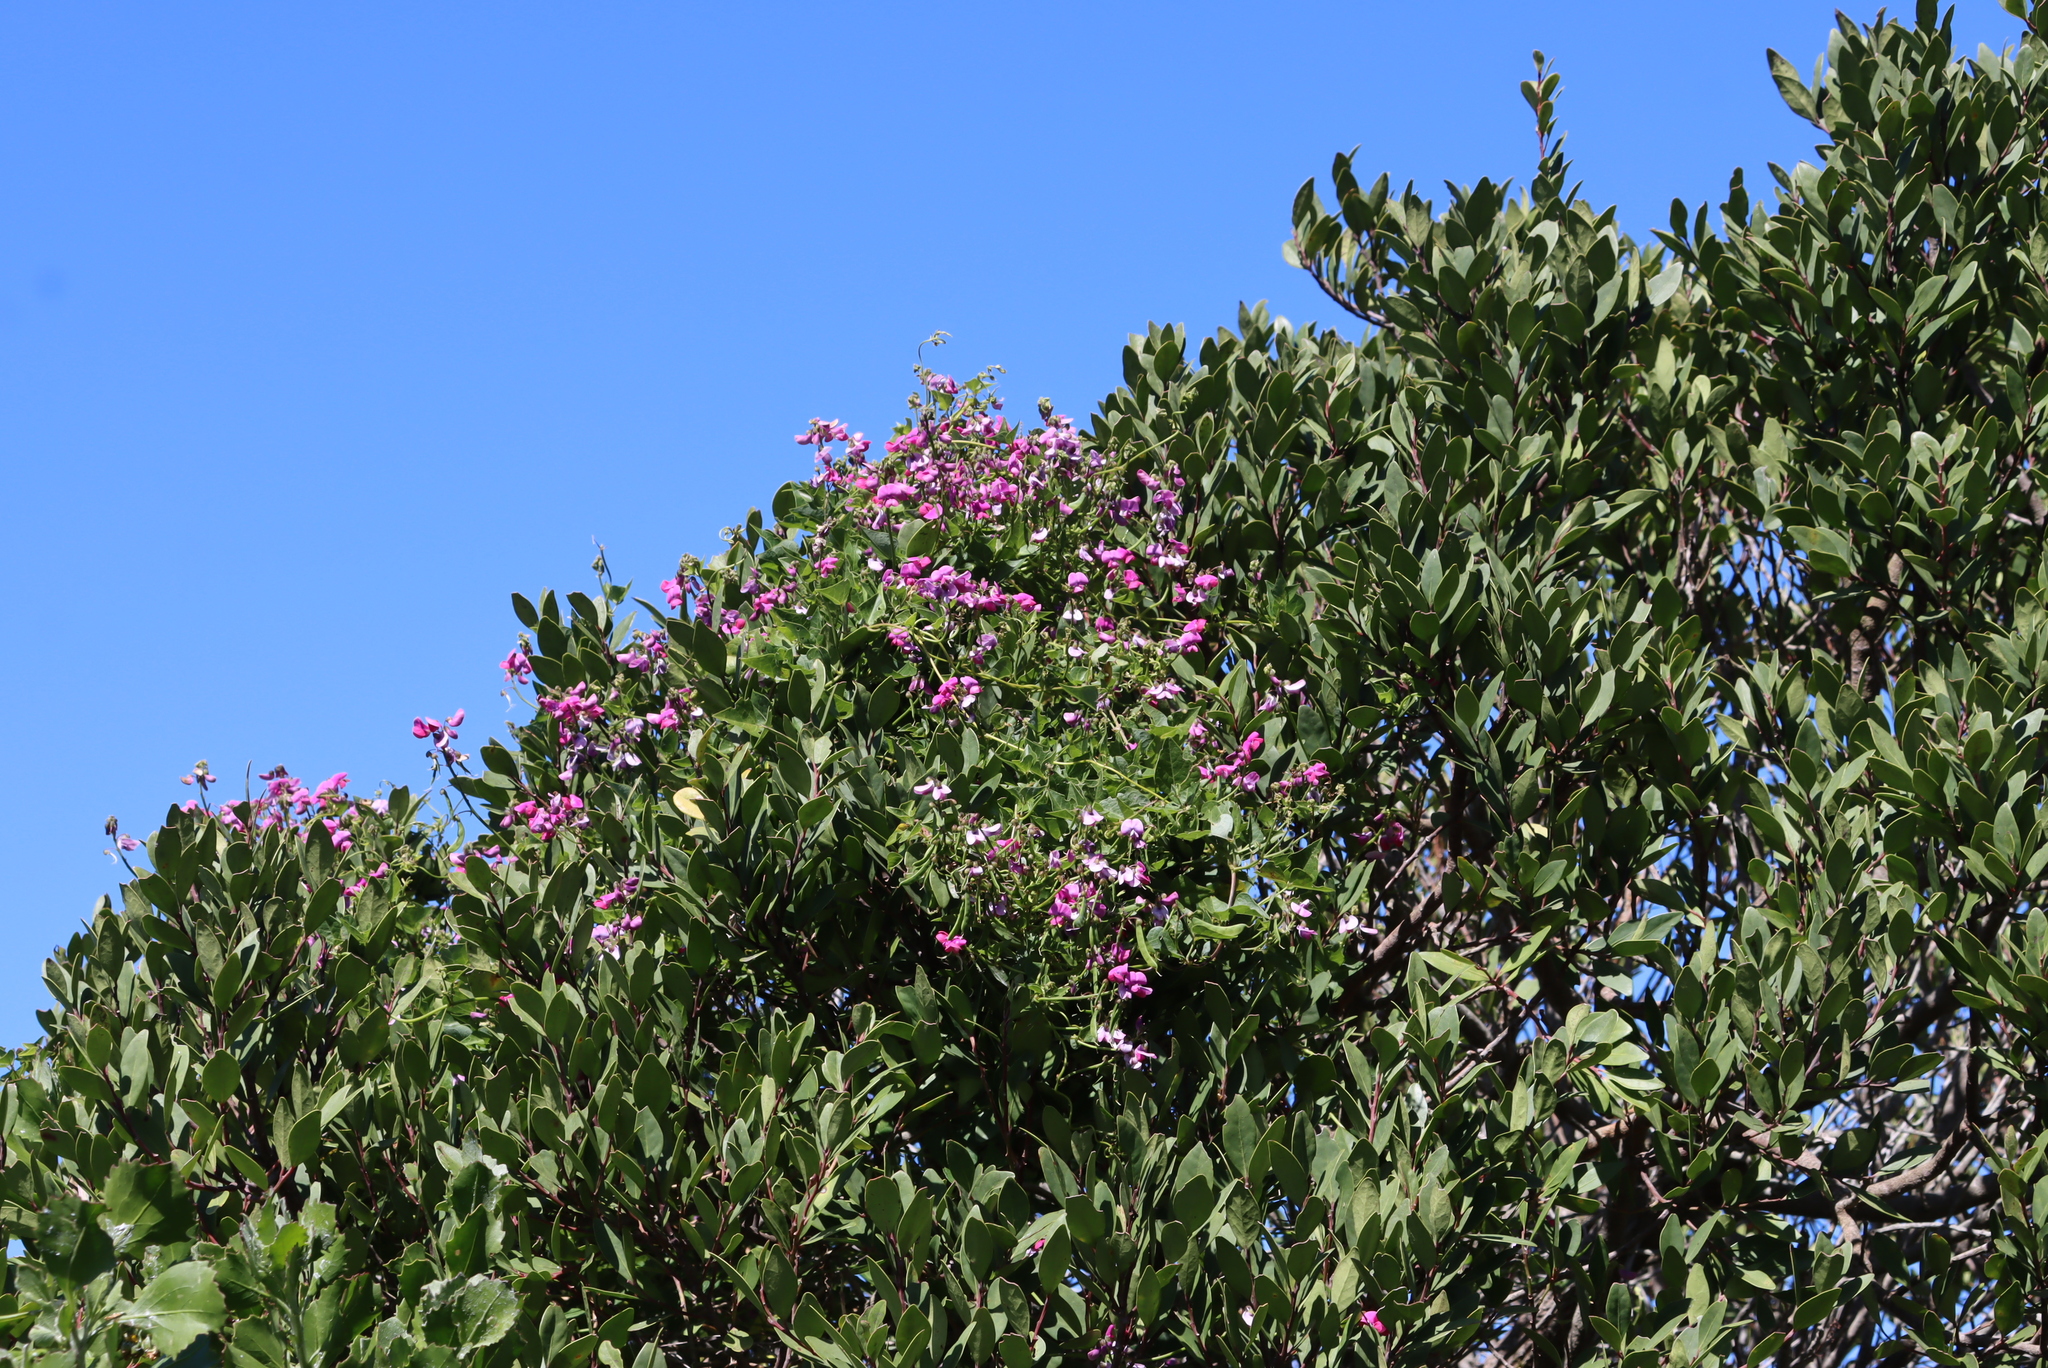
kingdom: Plantae
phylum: Tracheophyta
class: Magnoliopsida
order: Fabales
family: Fabaceae
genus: Dipogon
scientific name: Dipogon lignosus
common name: Okie bean
